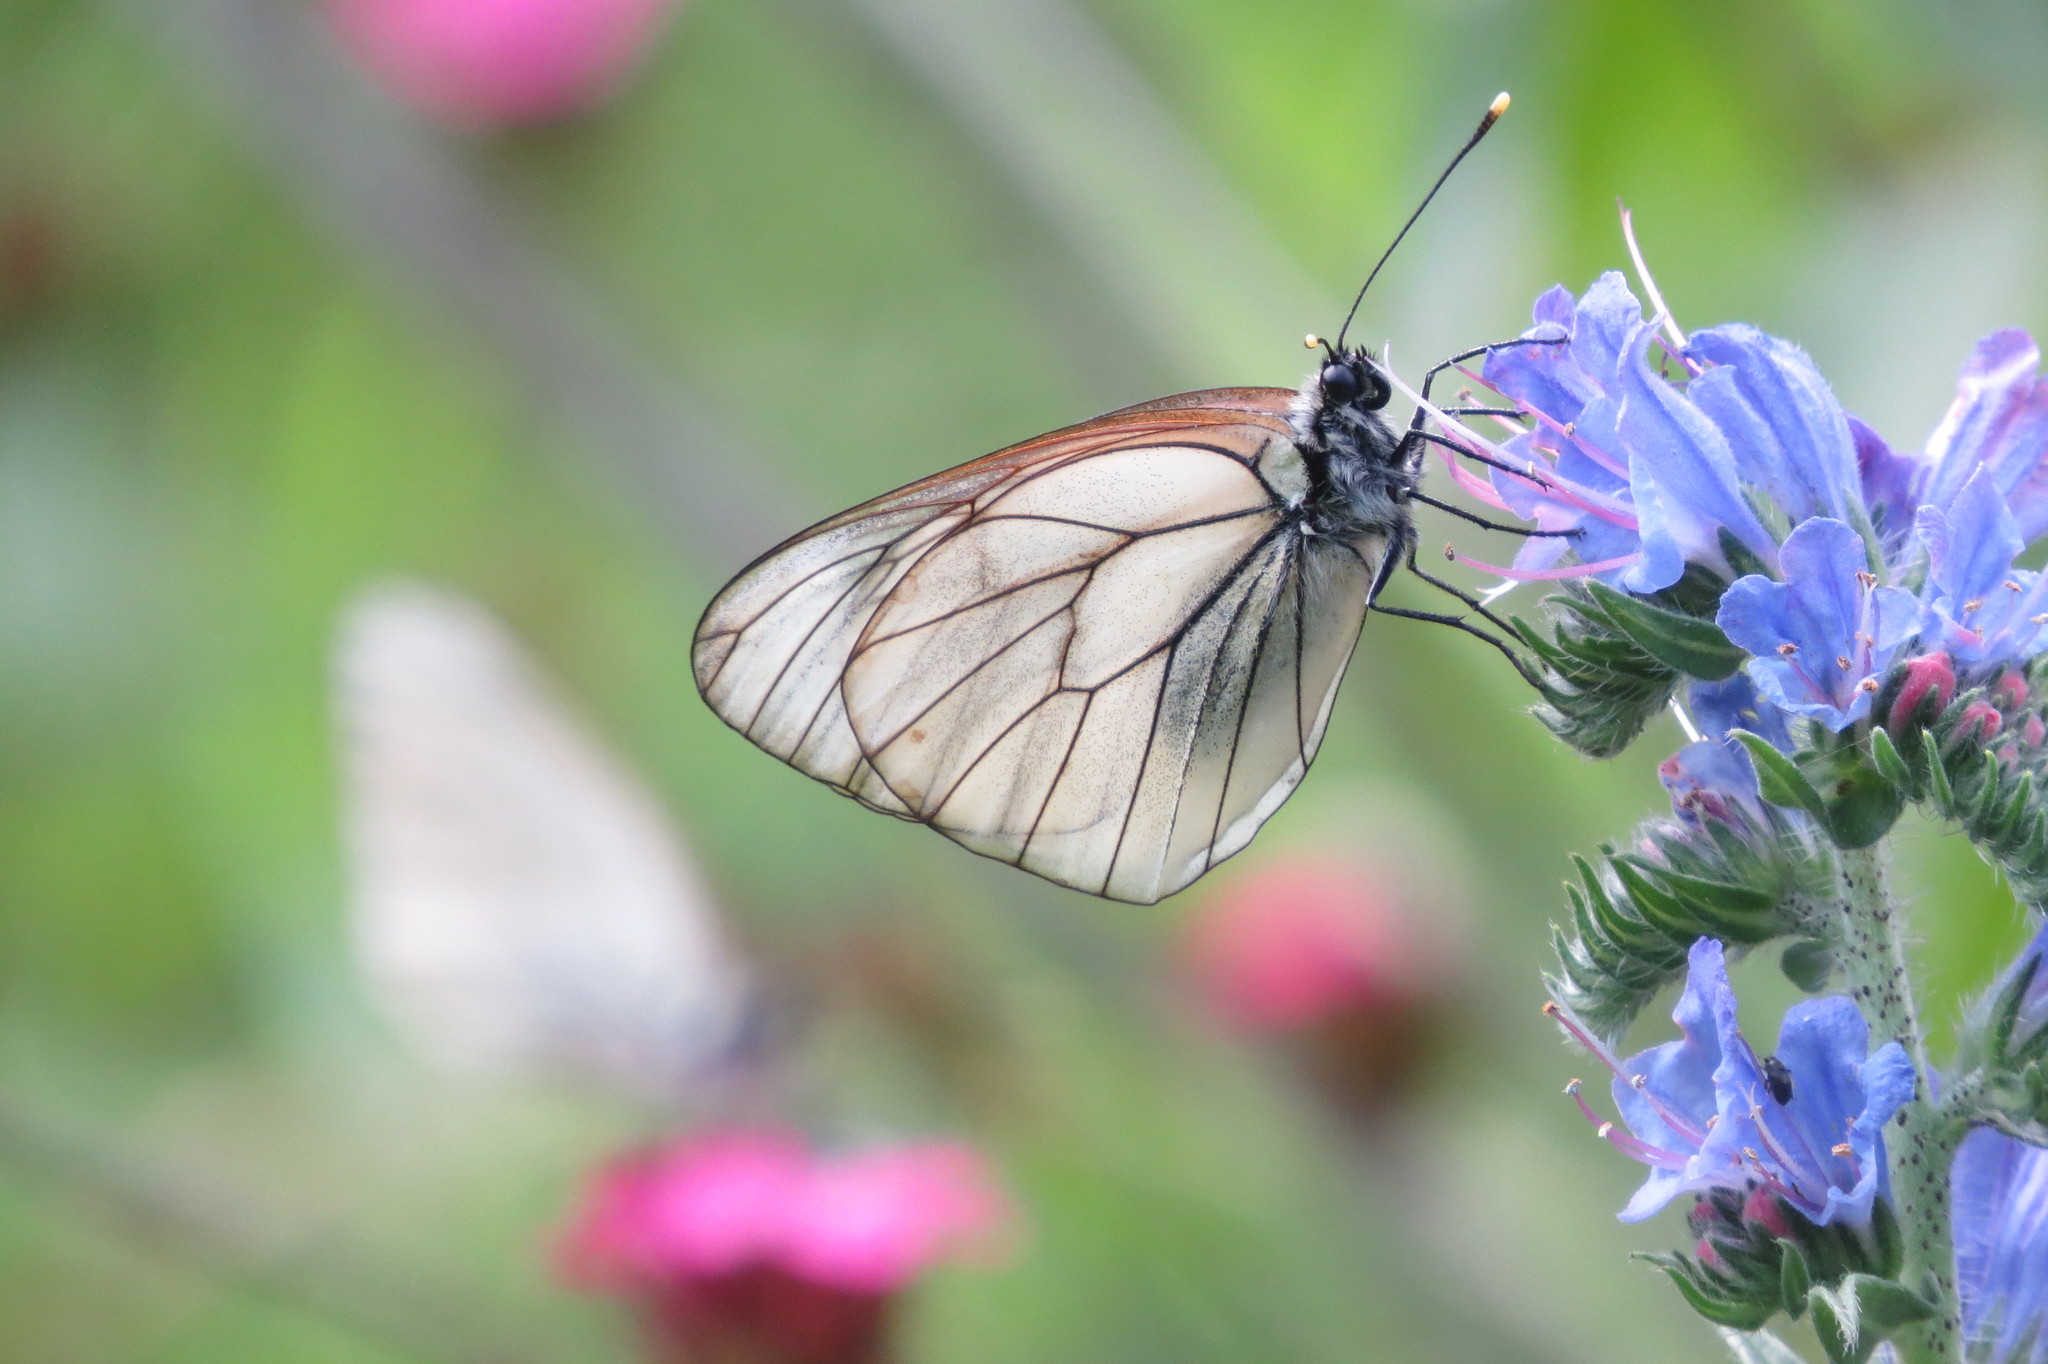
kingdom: Animalia
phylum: Arthropoda
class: Insecta
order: Lepidoptera
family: Pieridae
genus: Aporia
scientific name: Aporia crataegi
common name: Black-veined white
